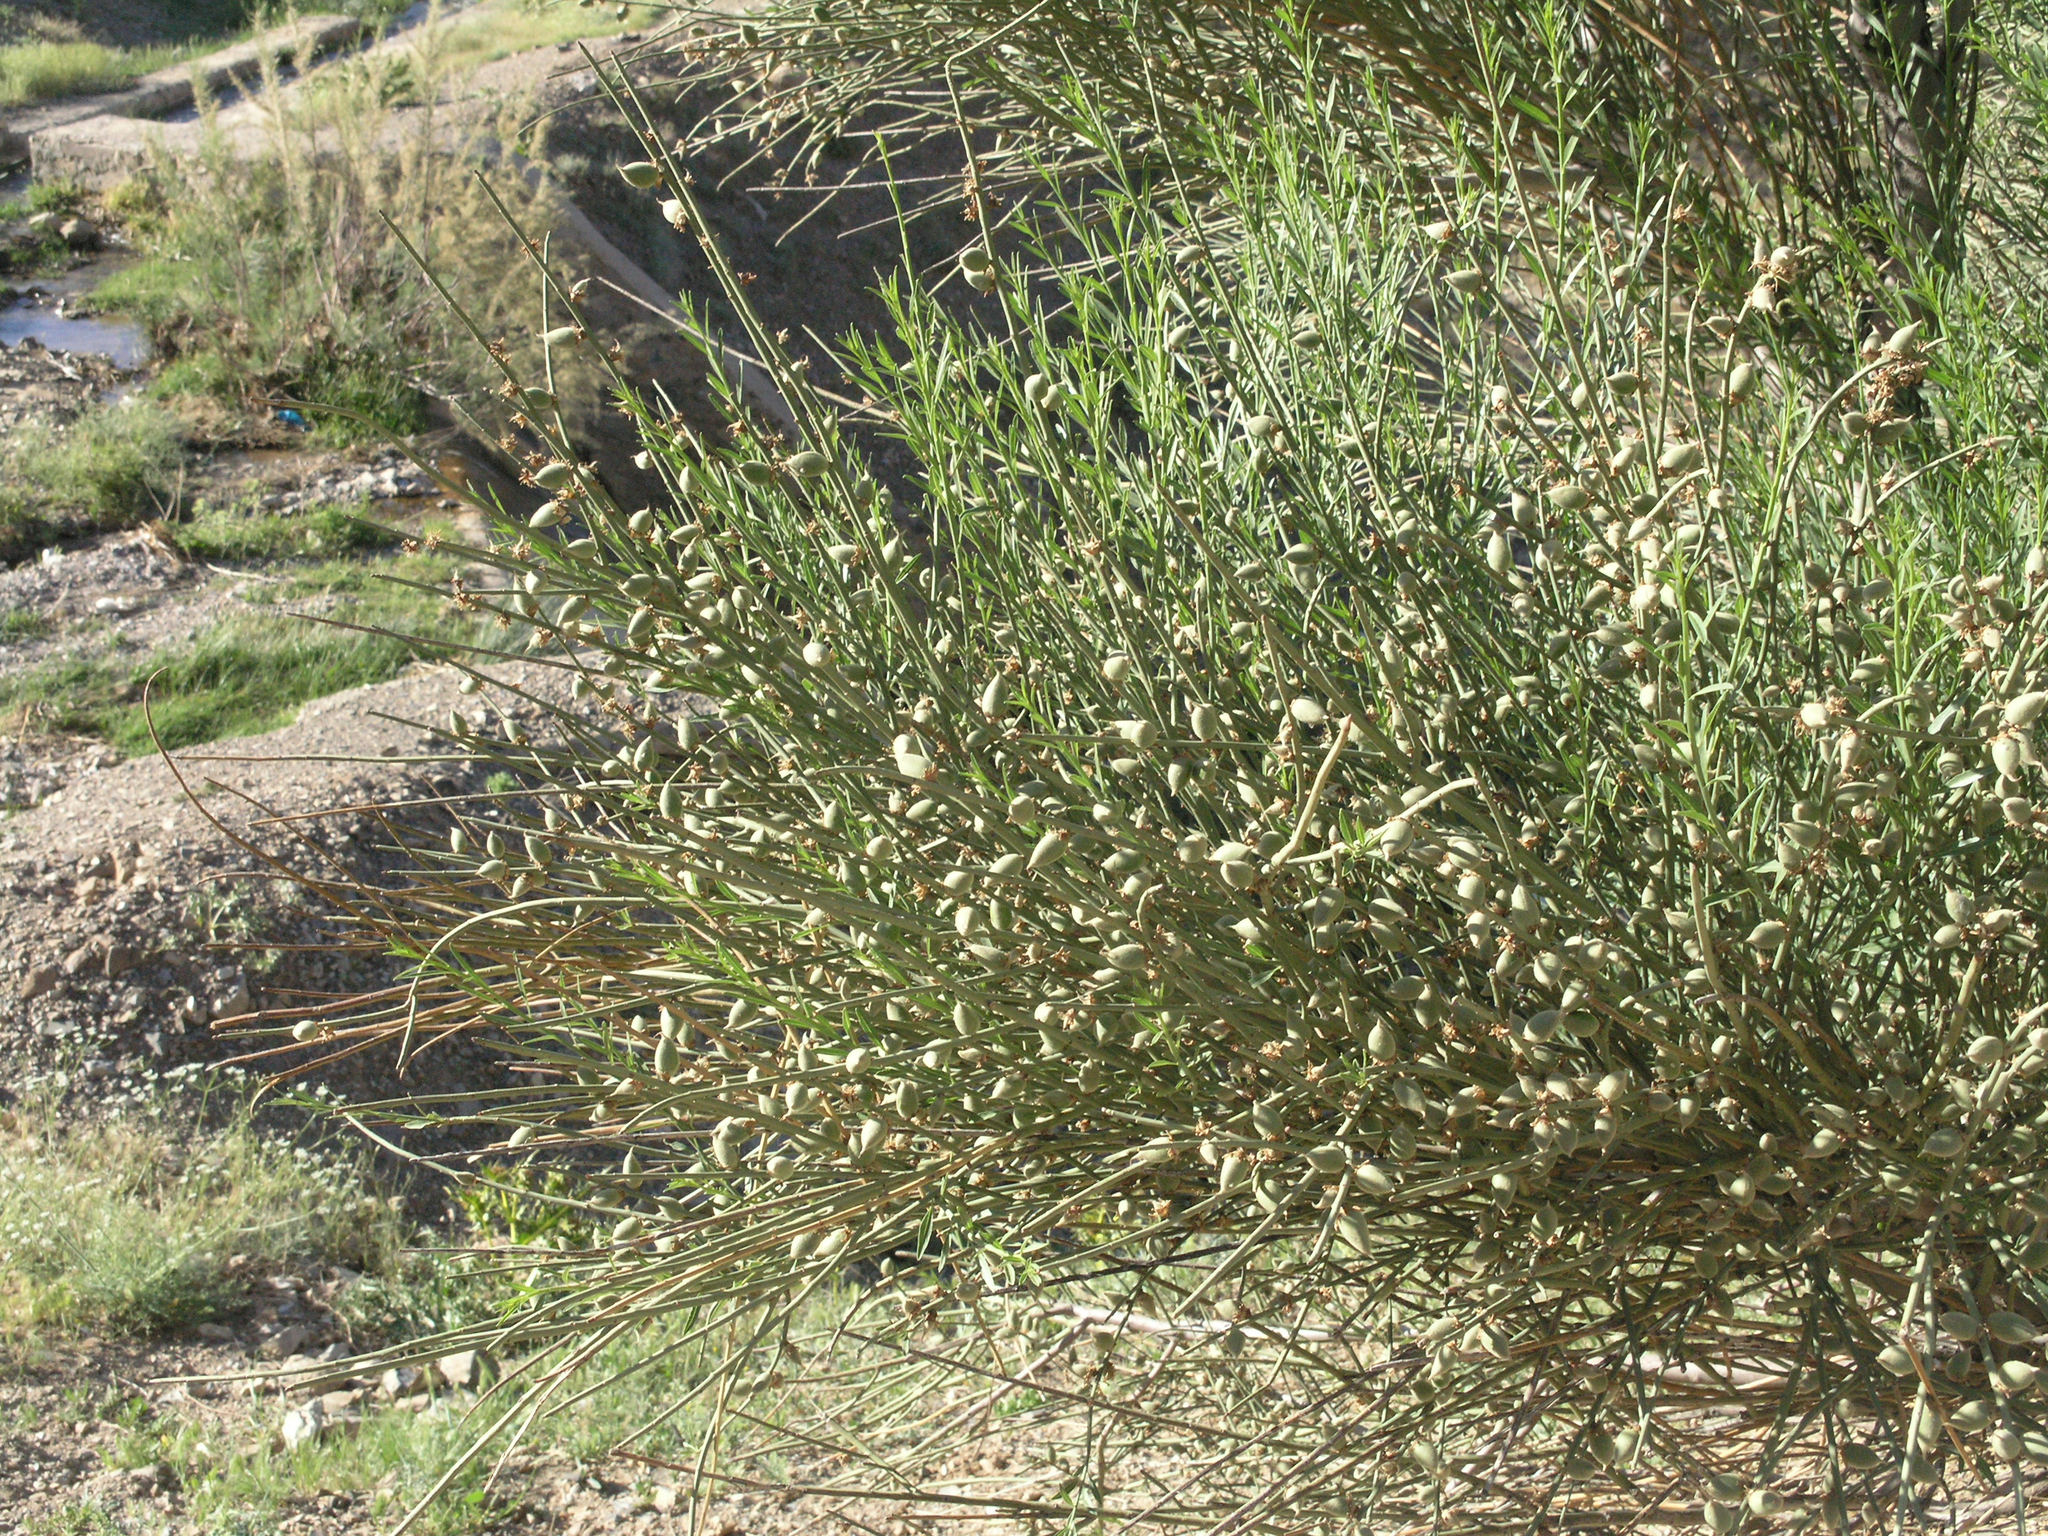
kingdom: Plantae
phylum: Tracheophyta
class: Magnoliopsida
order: Rosales
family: Rosaceae
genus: Prunus
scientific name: Prunus scoparia
